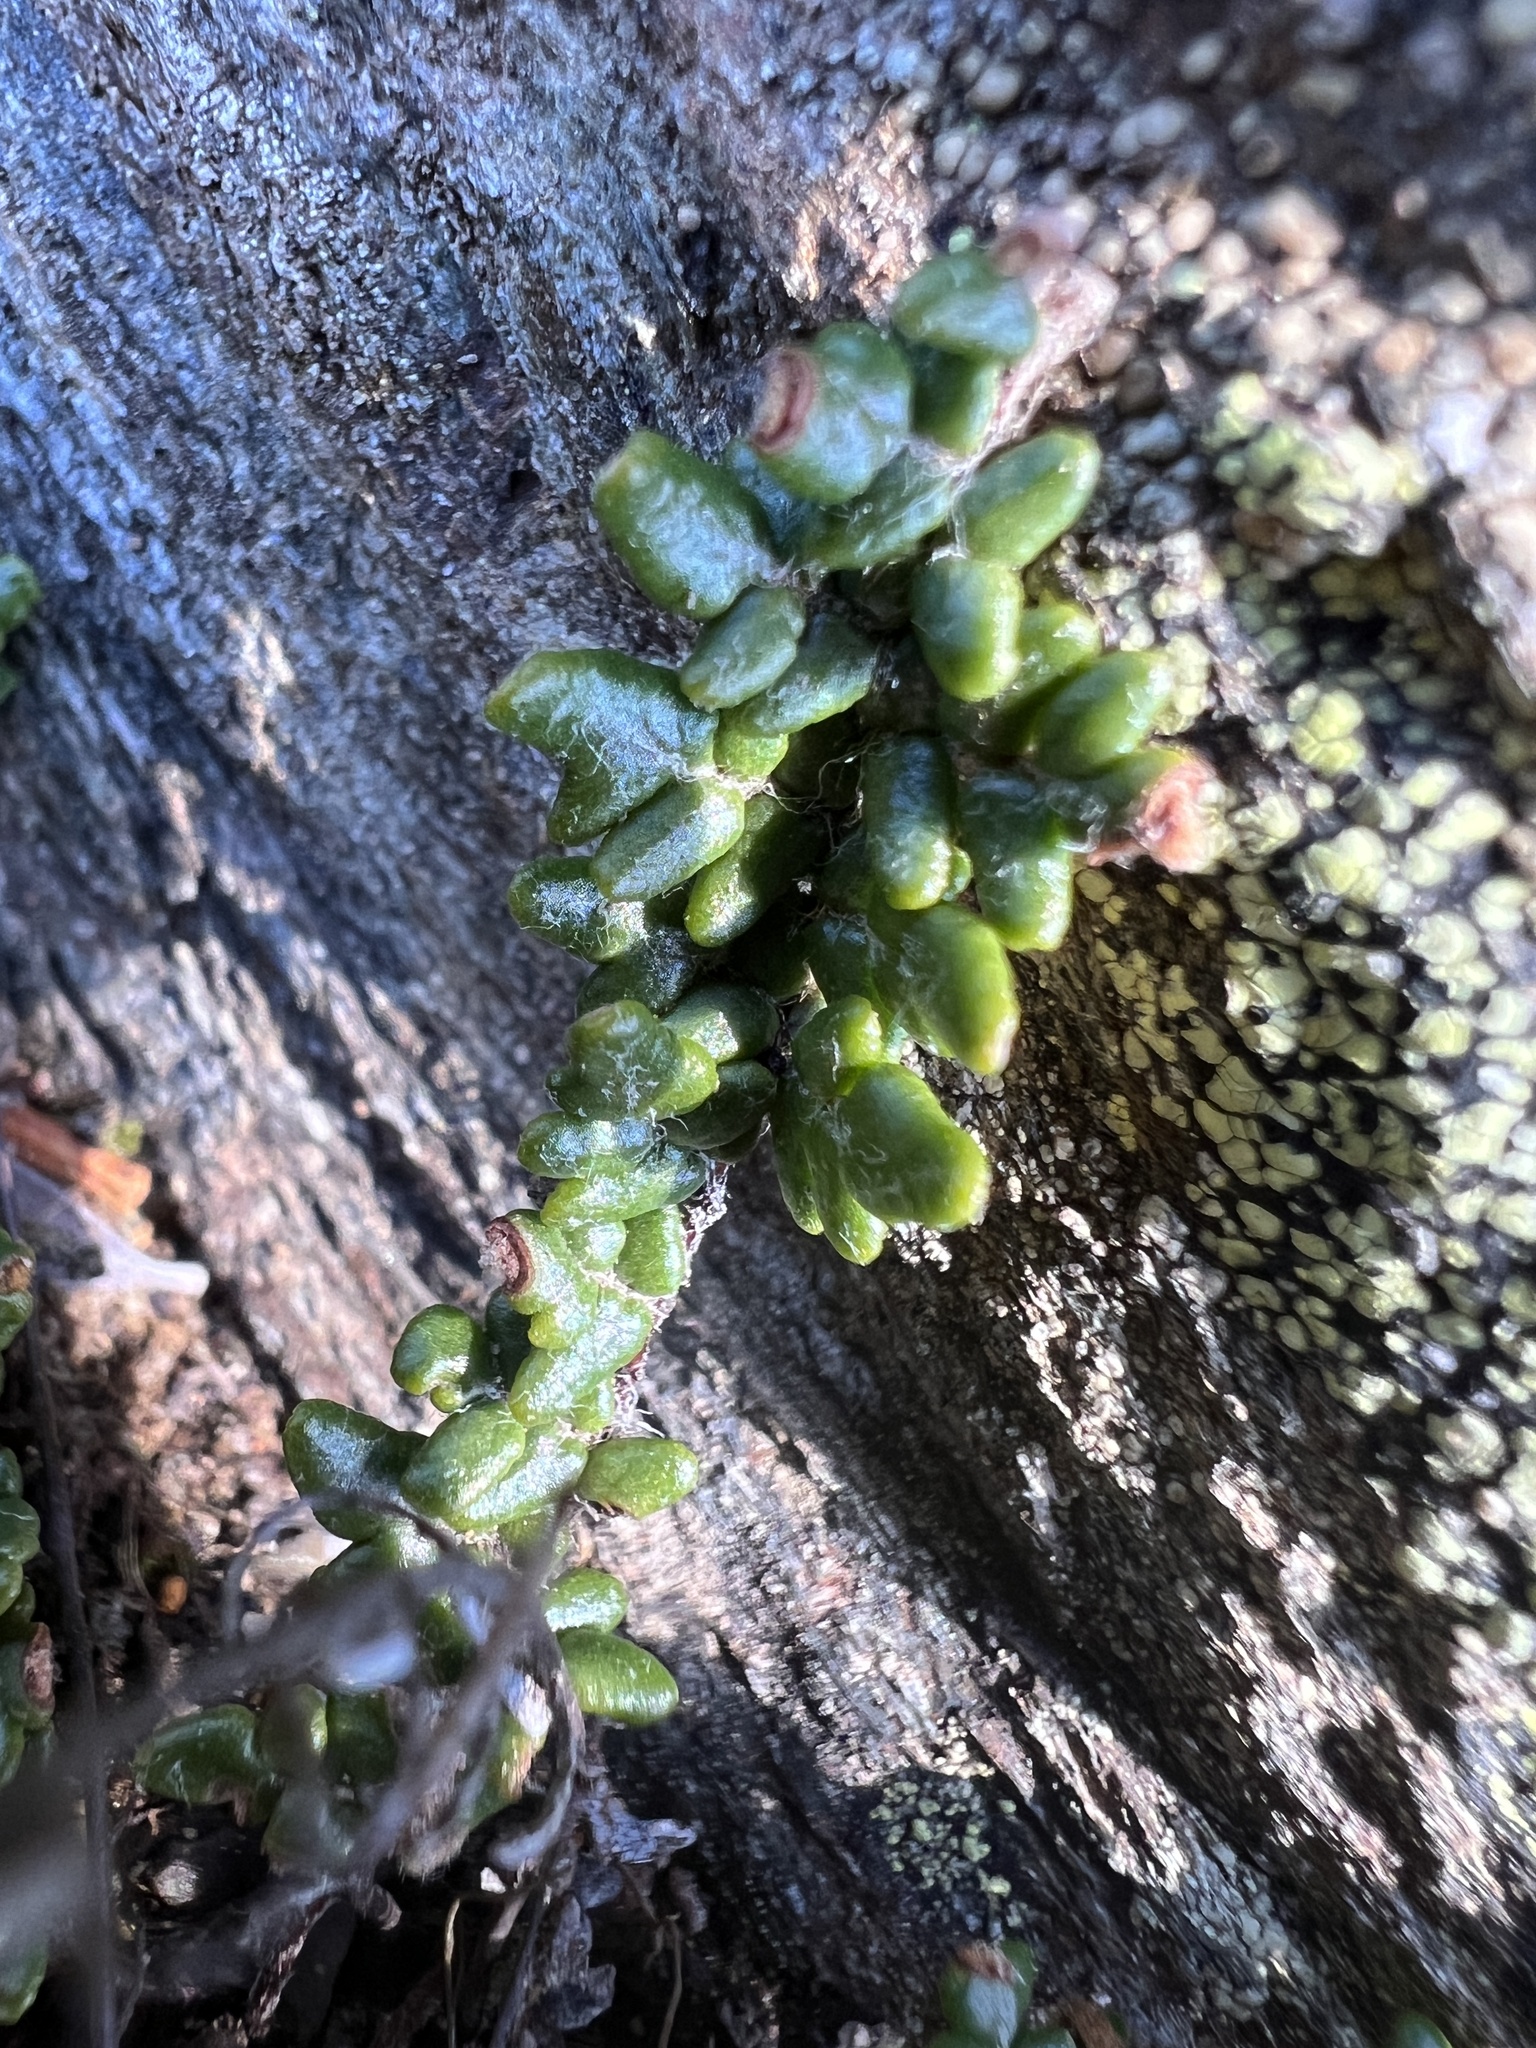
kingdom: Plantae
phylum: Tracheophyta
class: Polypodiopsida
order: Polypodiales
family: Pteridaceae
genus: Myriopteris
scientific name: Myriopteris gracillima
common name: Lace fern
